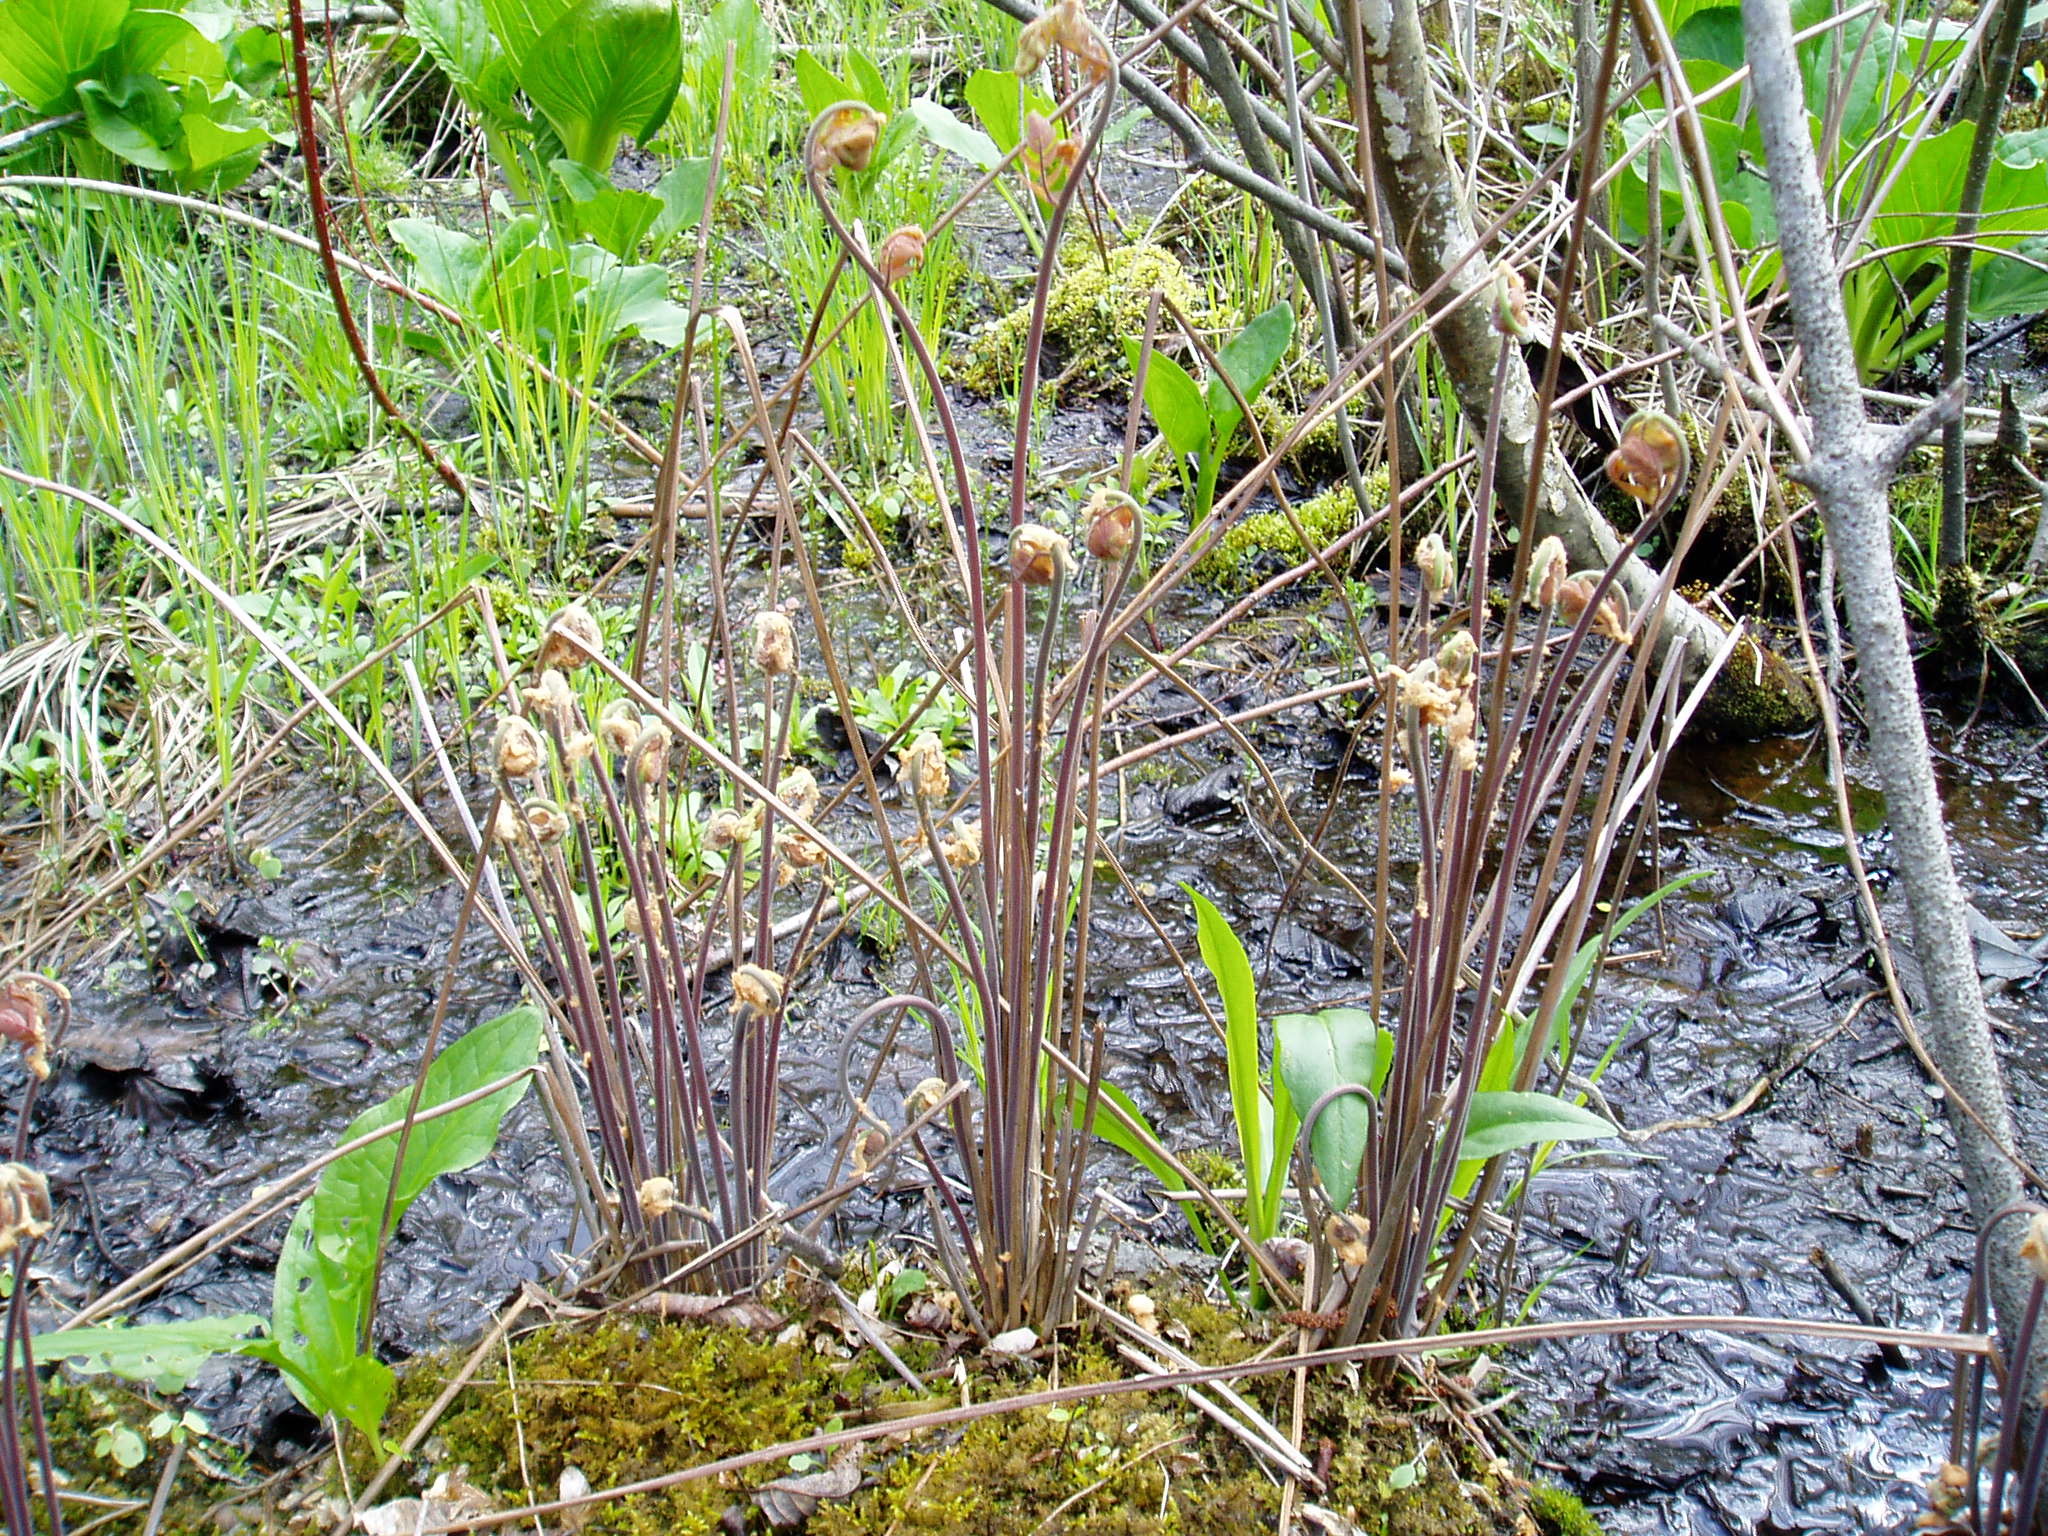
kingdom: Plantae
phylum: Tracheophyta
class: Polypodiopsida
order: Osmundales
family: Osmundaceae
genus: Osmunda
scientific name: Osmunda spectabilis
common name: American royal fern
